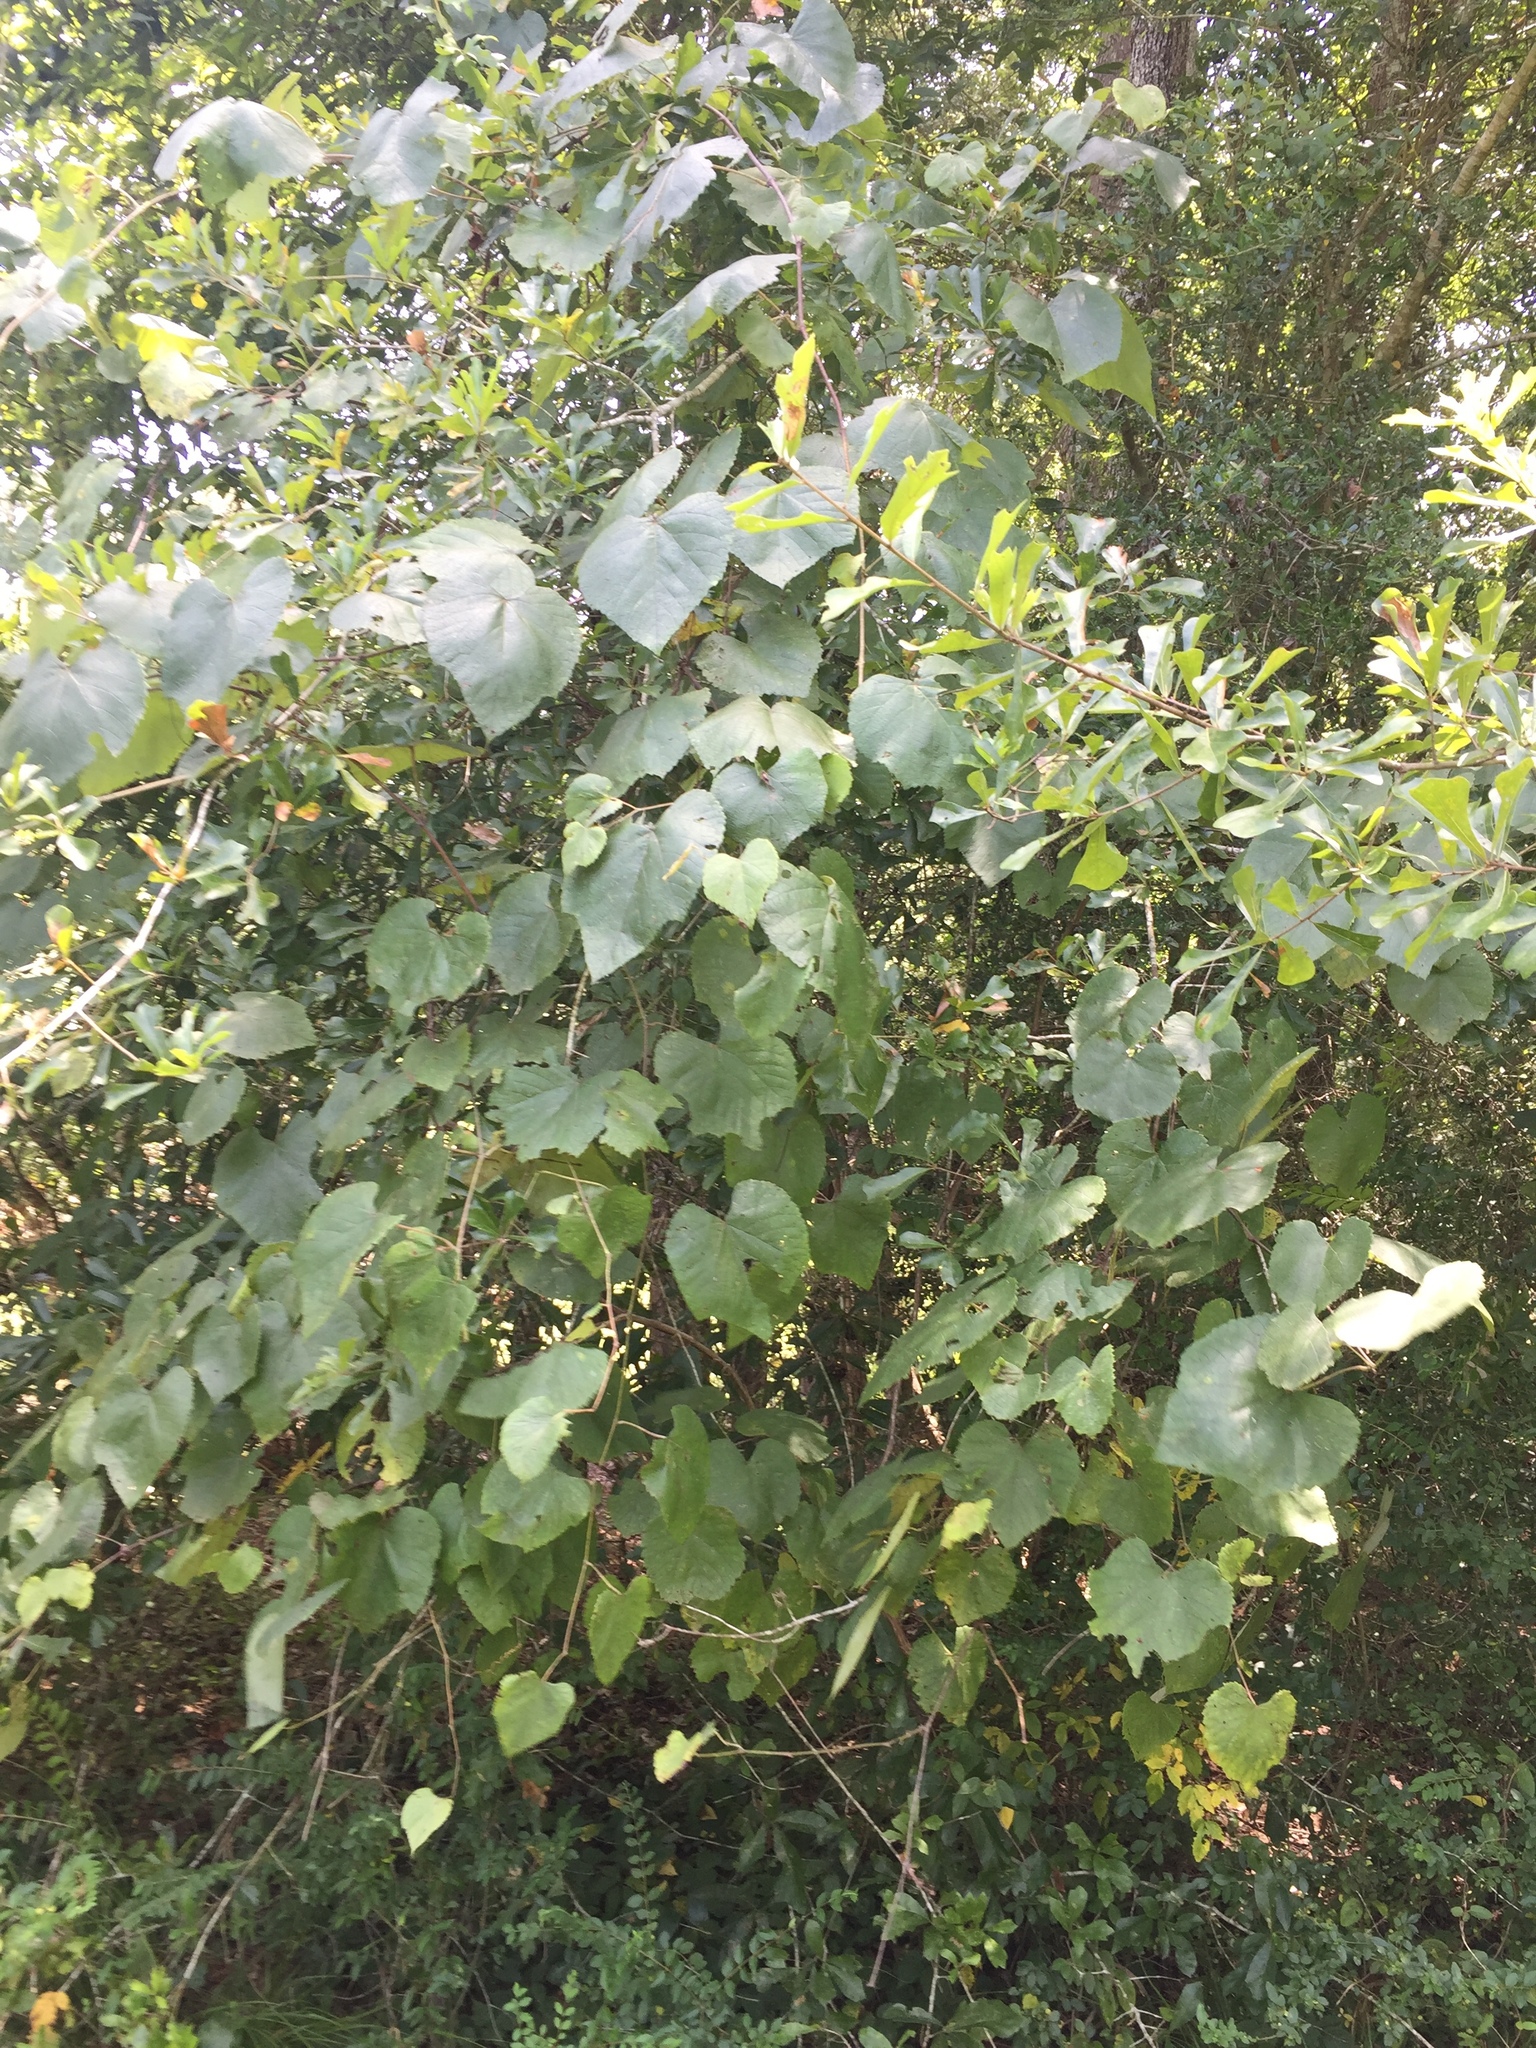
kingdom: Plantae
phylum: Tracheophyta
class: Magnoliopsida
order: Vitales
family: Vitaceae
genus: Vitis
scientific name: Vitis aestivalis
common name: Pigeon grape
